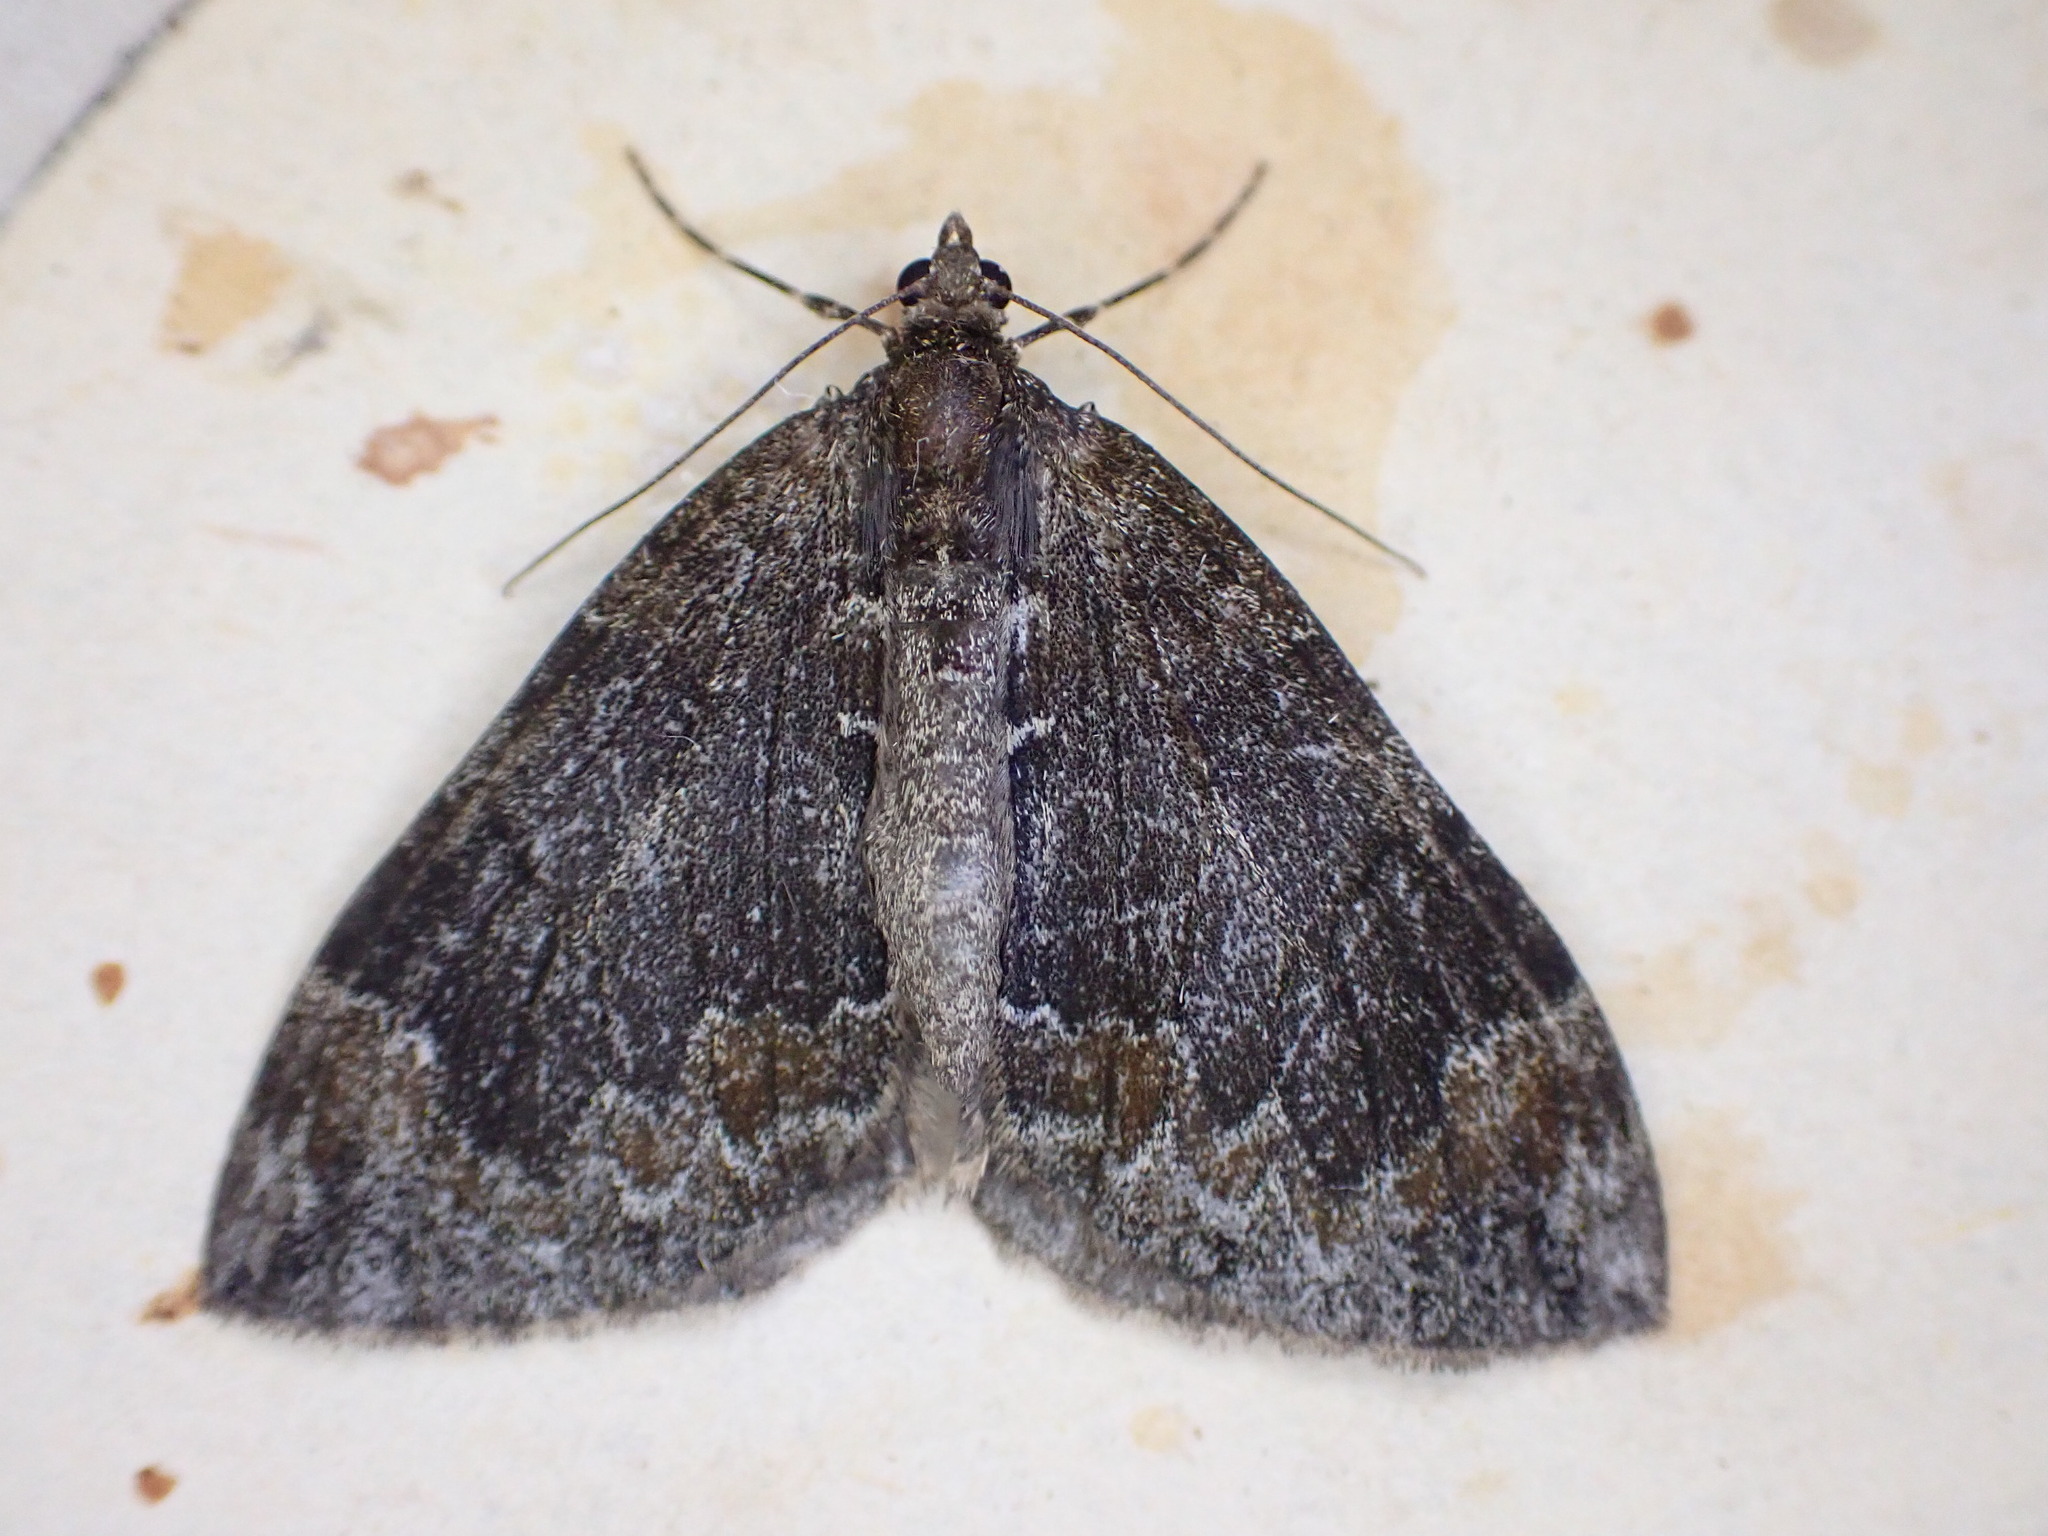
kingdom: Animalia
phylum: Arthropoda
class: Insecta
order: Lepidoptera
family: Geometridae
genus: Dysstroma
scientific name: Dysstroma truncata
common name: Common marbled carpet
